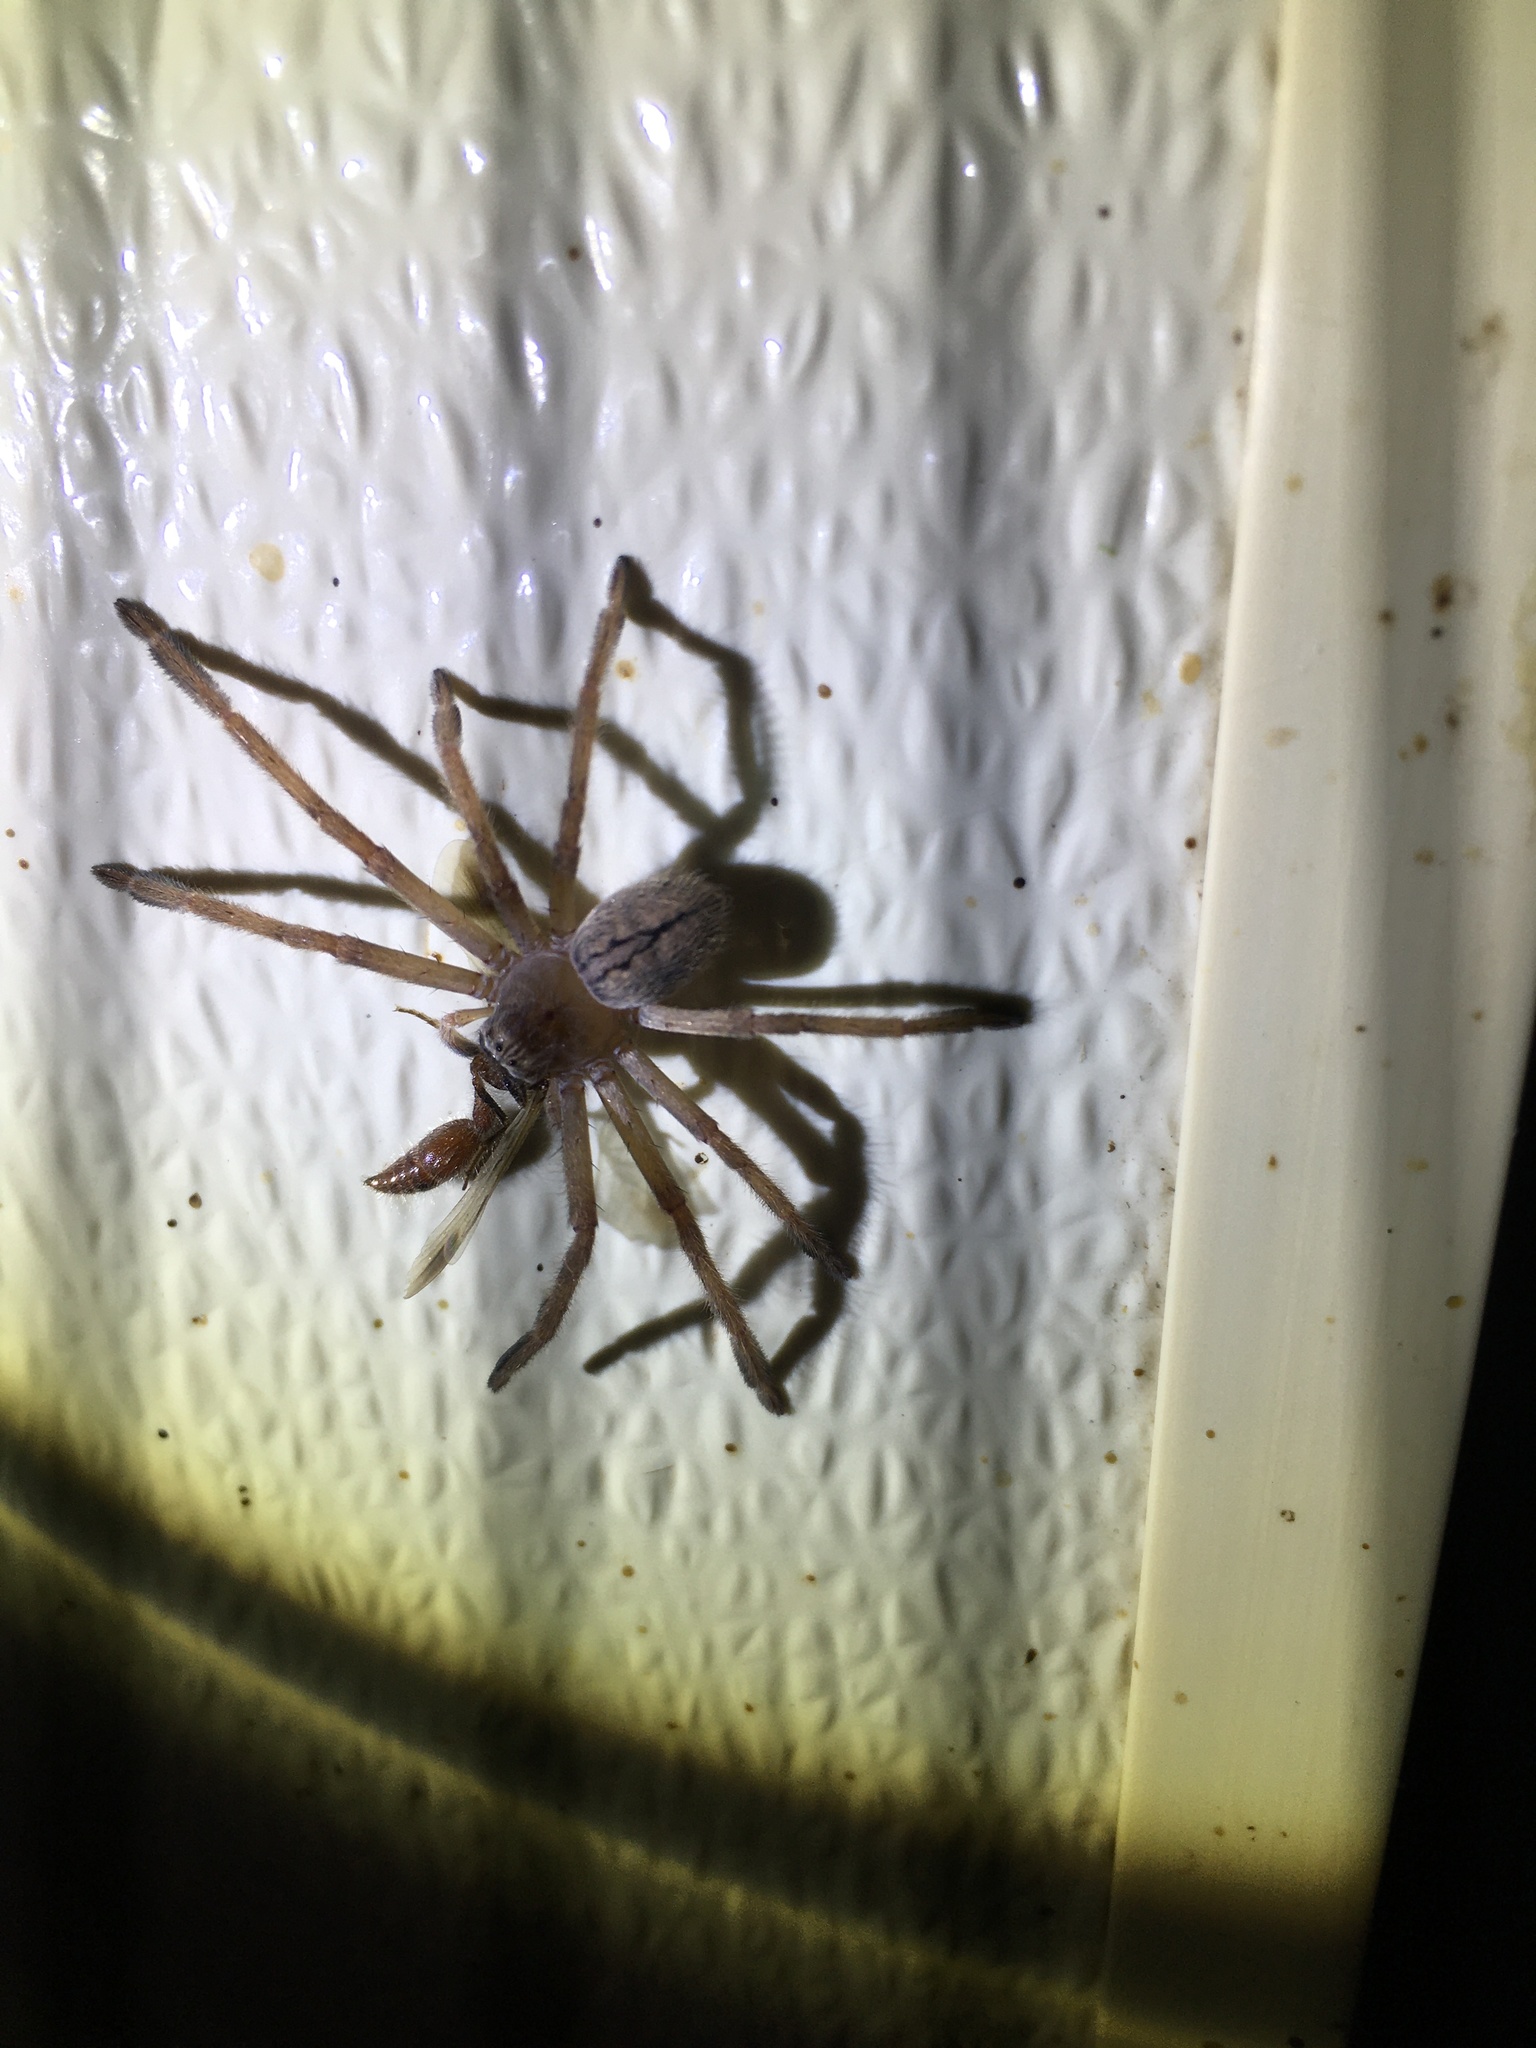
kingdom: Animalia
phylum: Arthropoda
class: Arachnida
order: Araneae
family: Sparassidae
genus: Olios
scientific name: Olios giganteus
